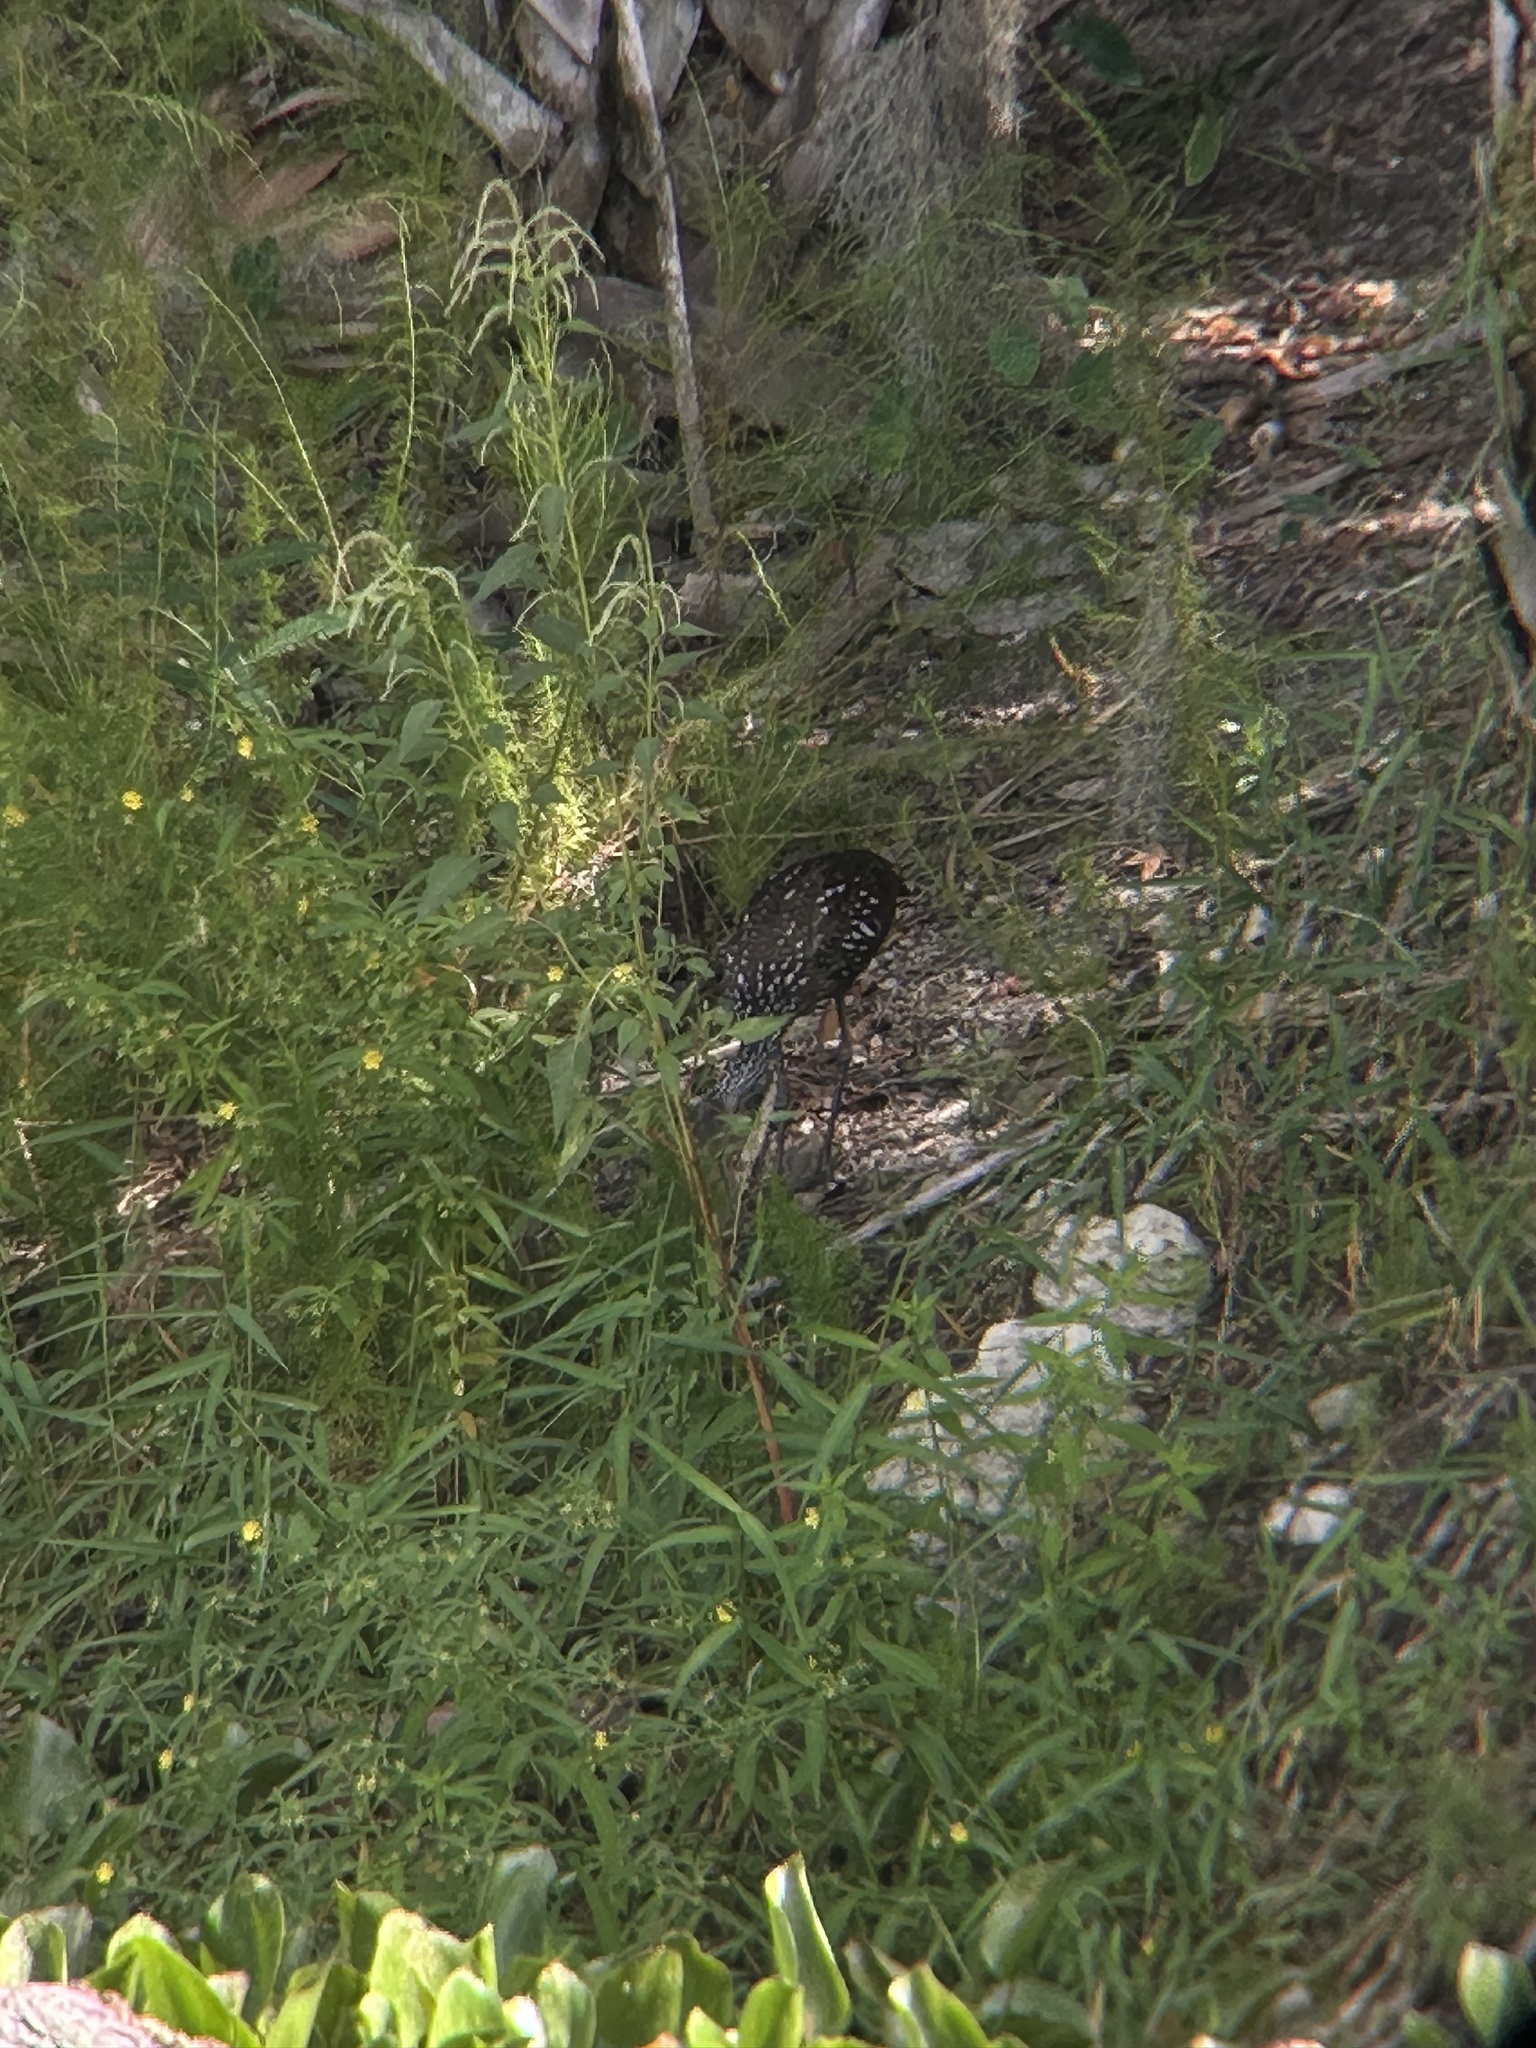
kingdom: Animalia
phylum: Chordata
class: Aves
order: Gruiformes
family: Aramidae
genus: Aramus
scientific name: Aramus guarauna
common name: Limpkin
